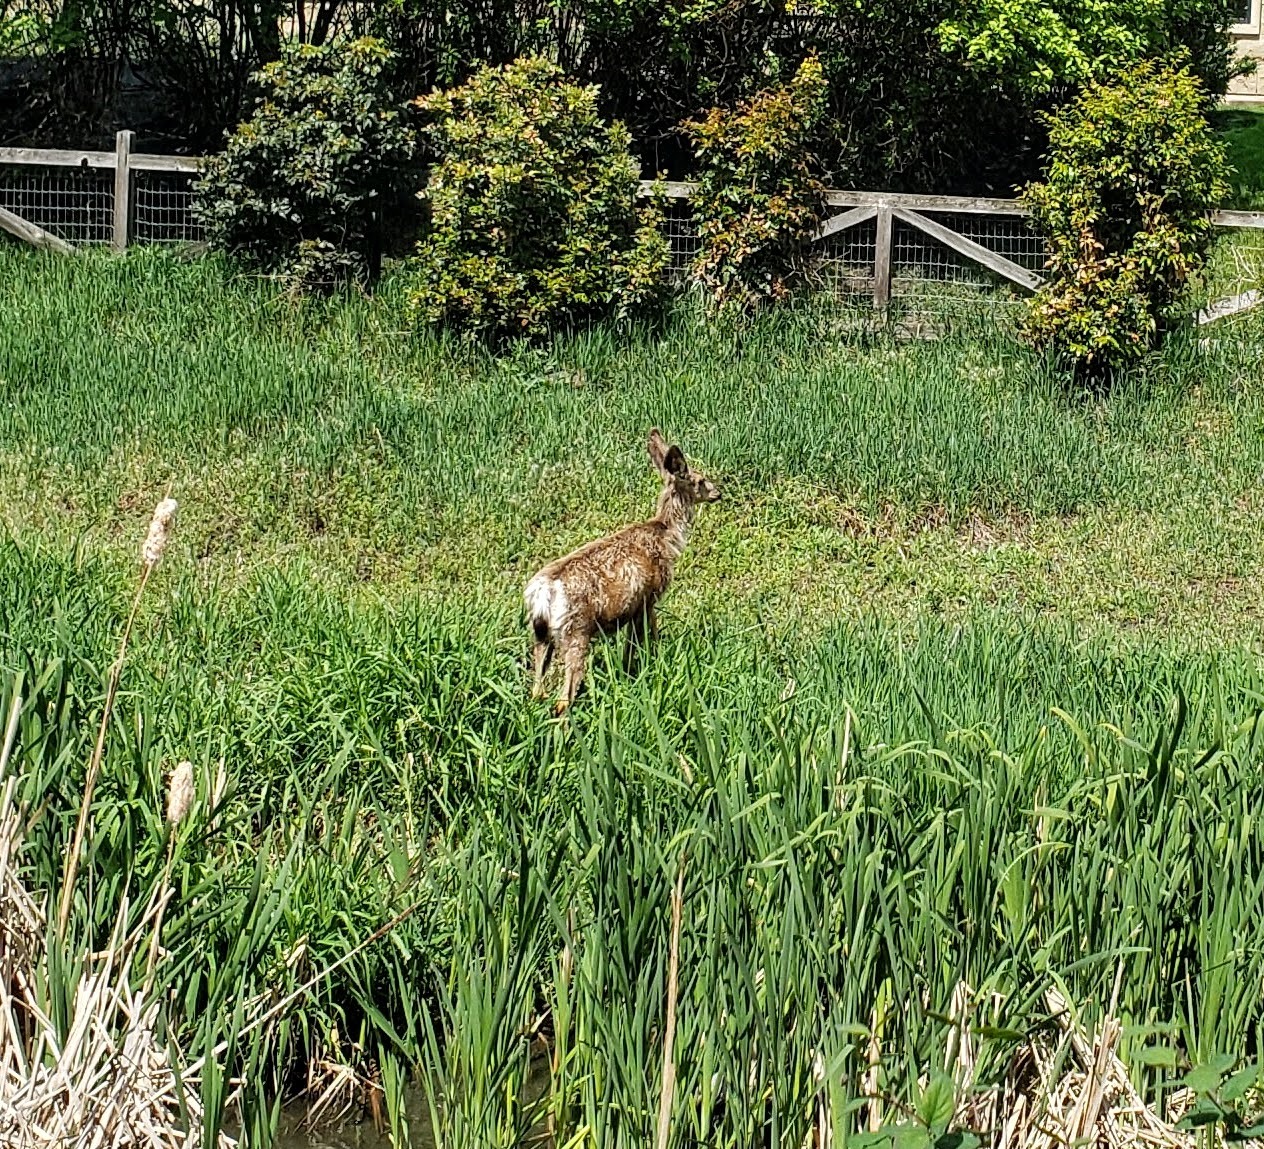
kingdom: Animalia
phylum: Chordata
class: Mammalia
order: Artiodactyla
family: Cervidae
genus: Odocoileus
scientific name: Odocoileus hemionus
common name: Mule deer
